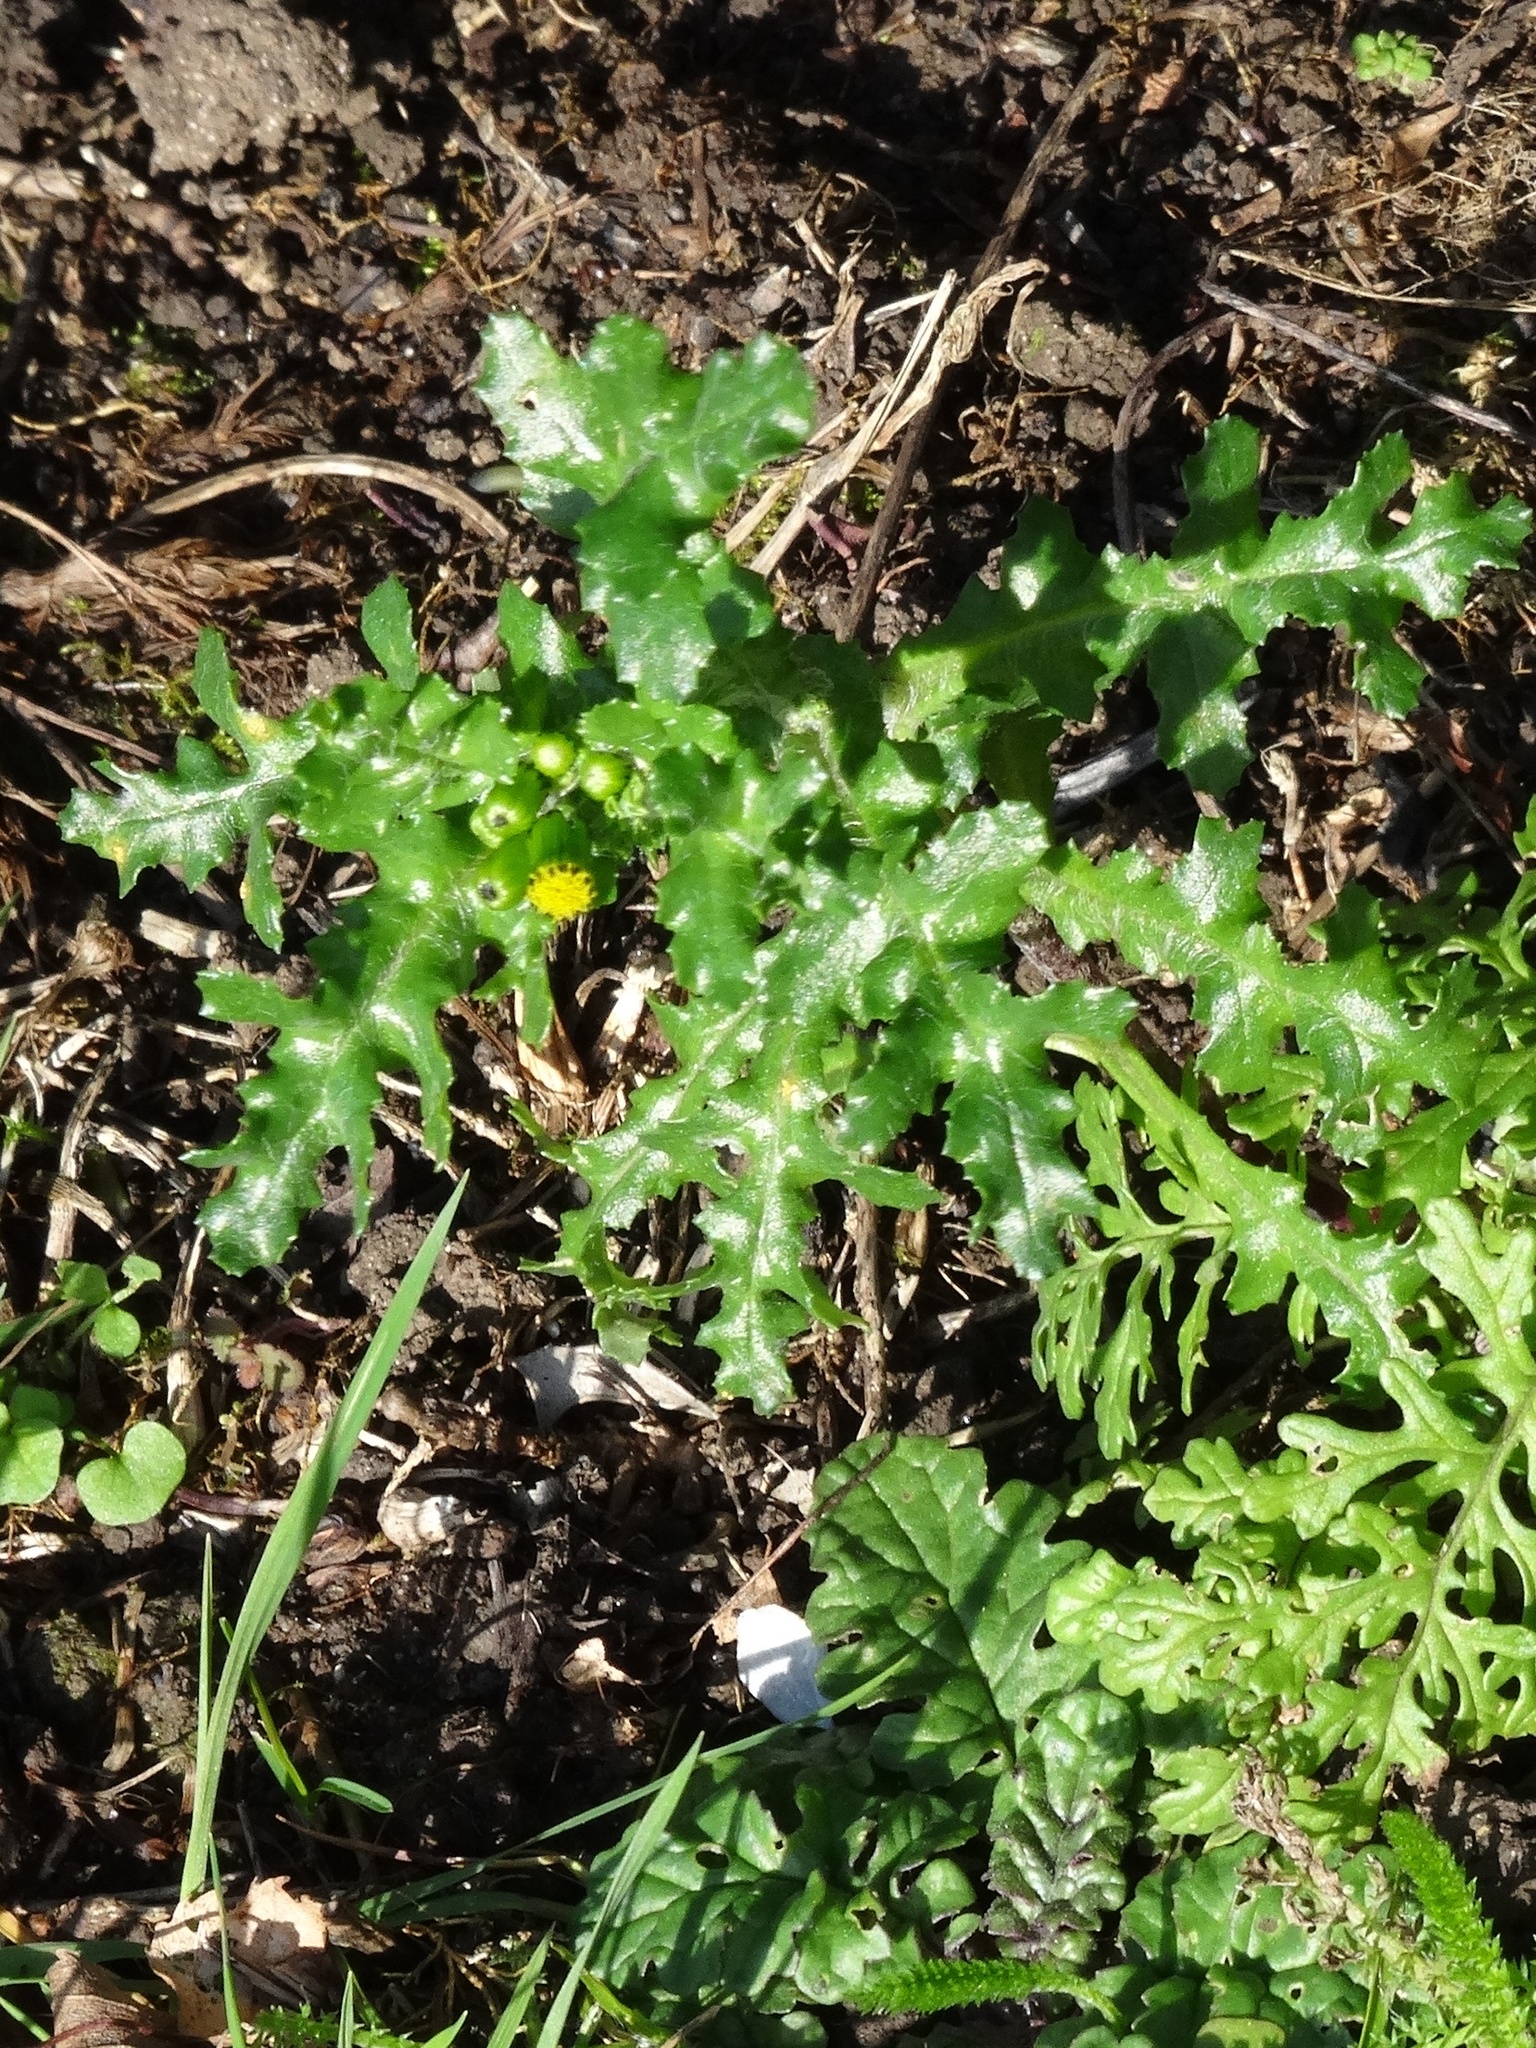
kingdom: Plantae
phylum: Tracheophyta
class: Magnoliopsida
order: Asterales
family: Asteraceae
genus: Senecio
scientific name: Senecio vulgaris
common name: Old-man-in-the-spring
